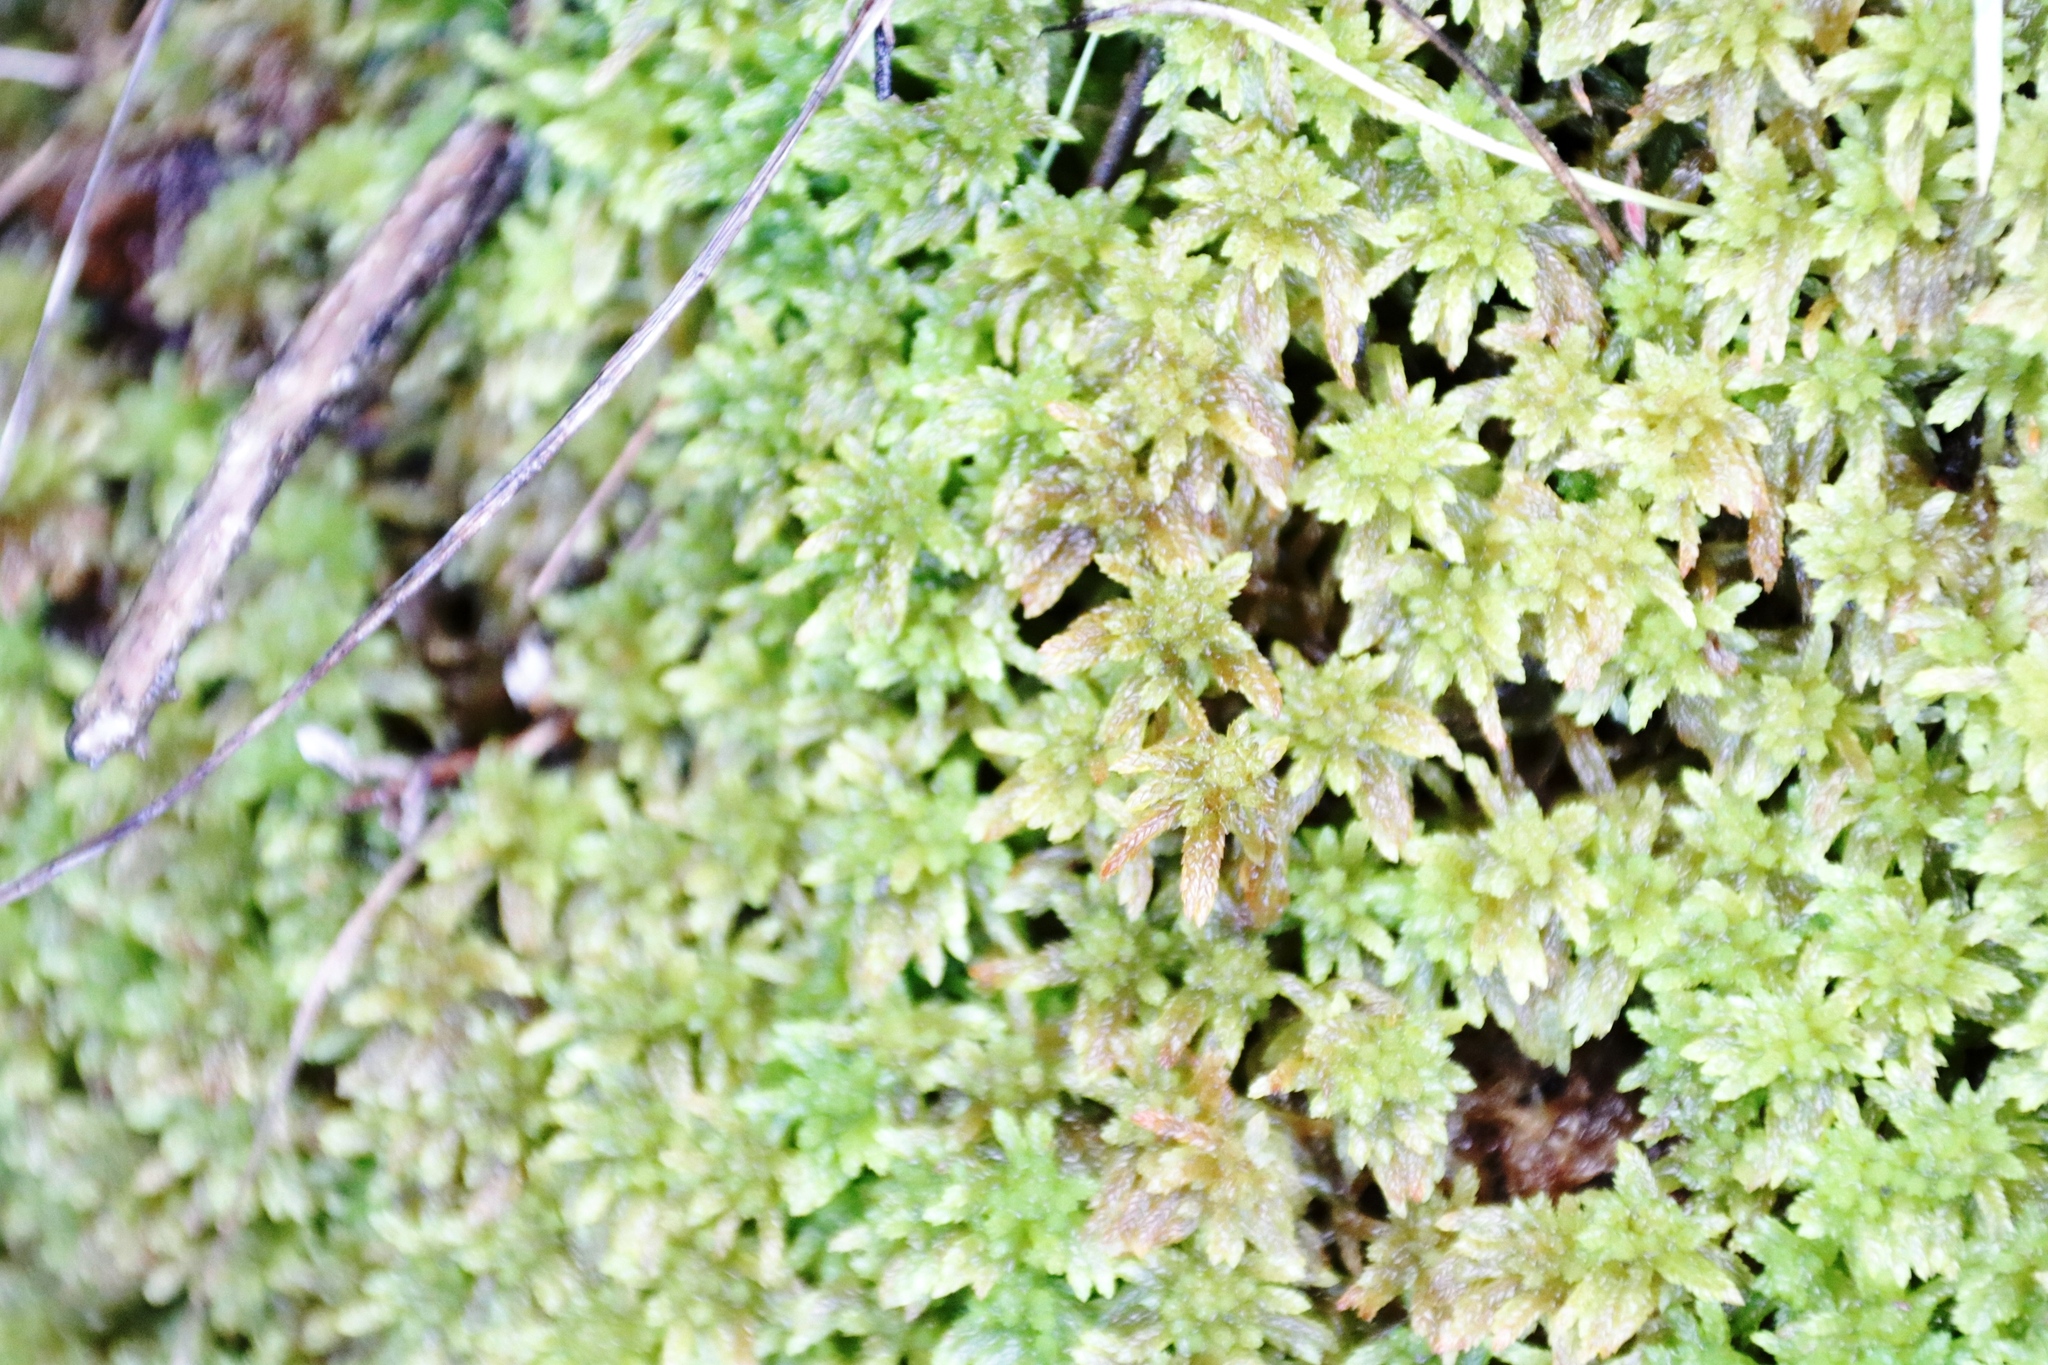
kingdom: Plantae
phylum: Bryophyta
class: Sphagnopsida
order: Sphagnales
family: Sphagnaceae
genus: Sphagnum
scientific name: Sphagnum capense
